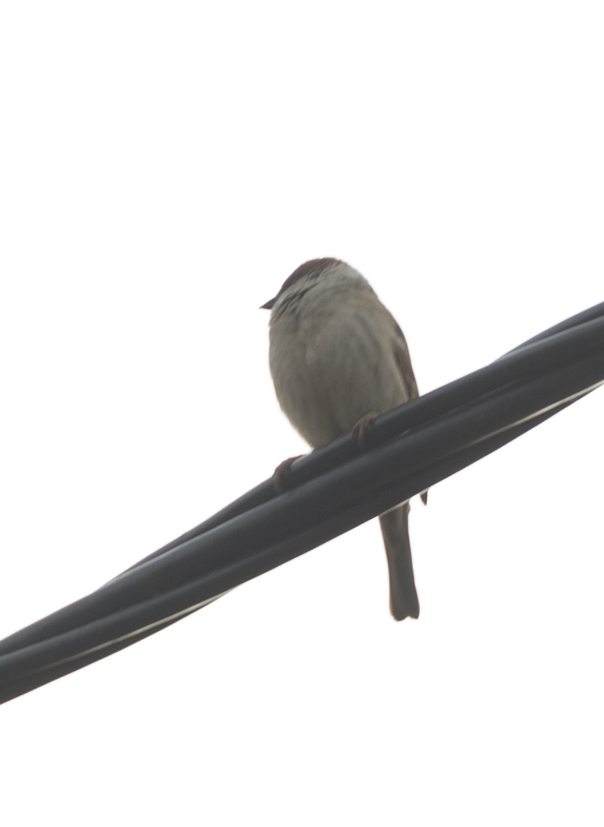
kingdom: Animalia
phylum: Chordata
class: Aves
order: Passeriformes
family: Passeridae
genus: Passer
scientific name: Passer montanus
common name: Eurasian tree sparrow
